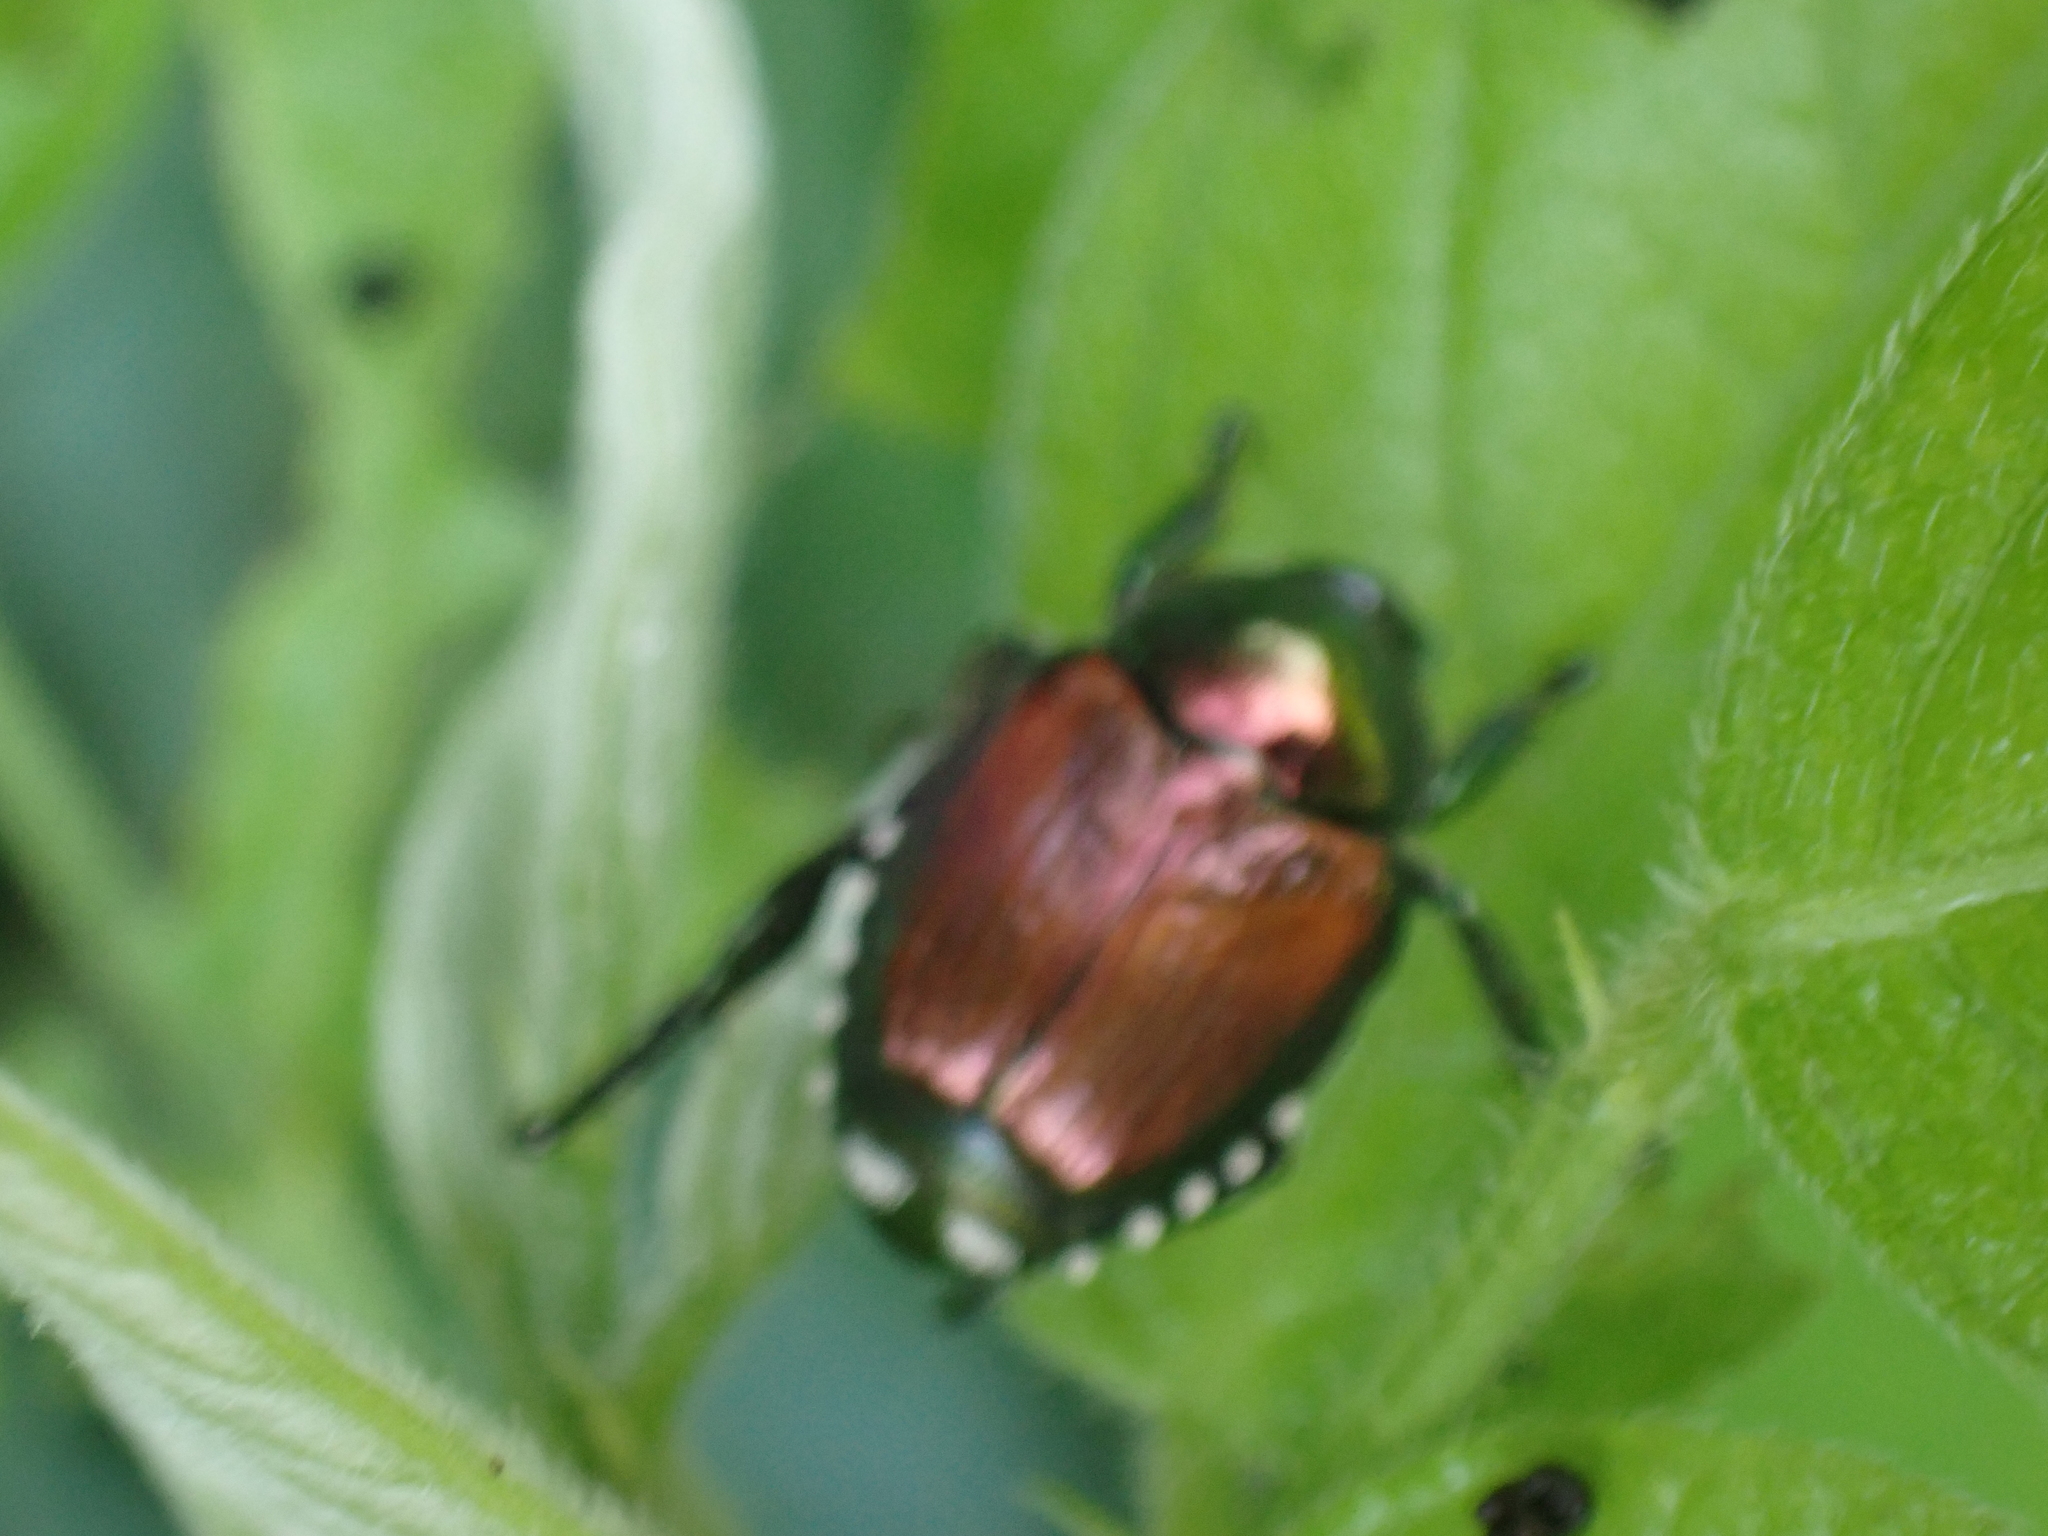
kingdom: Animalia
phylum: Arthropoda
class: Insecta
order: Coleoptera
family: Scarabaeidae
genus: Popillia
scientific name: Popillia japonica
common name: Japanese beetle
